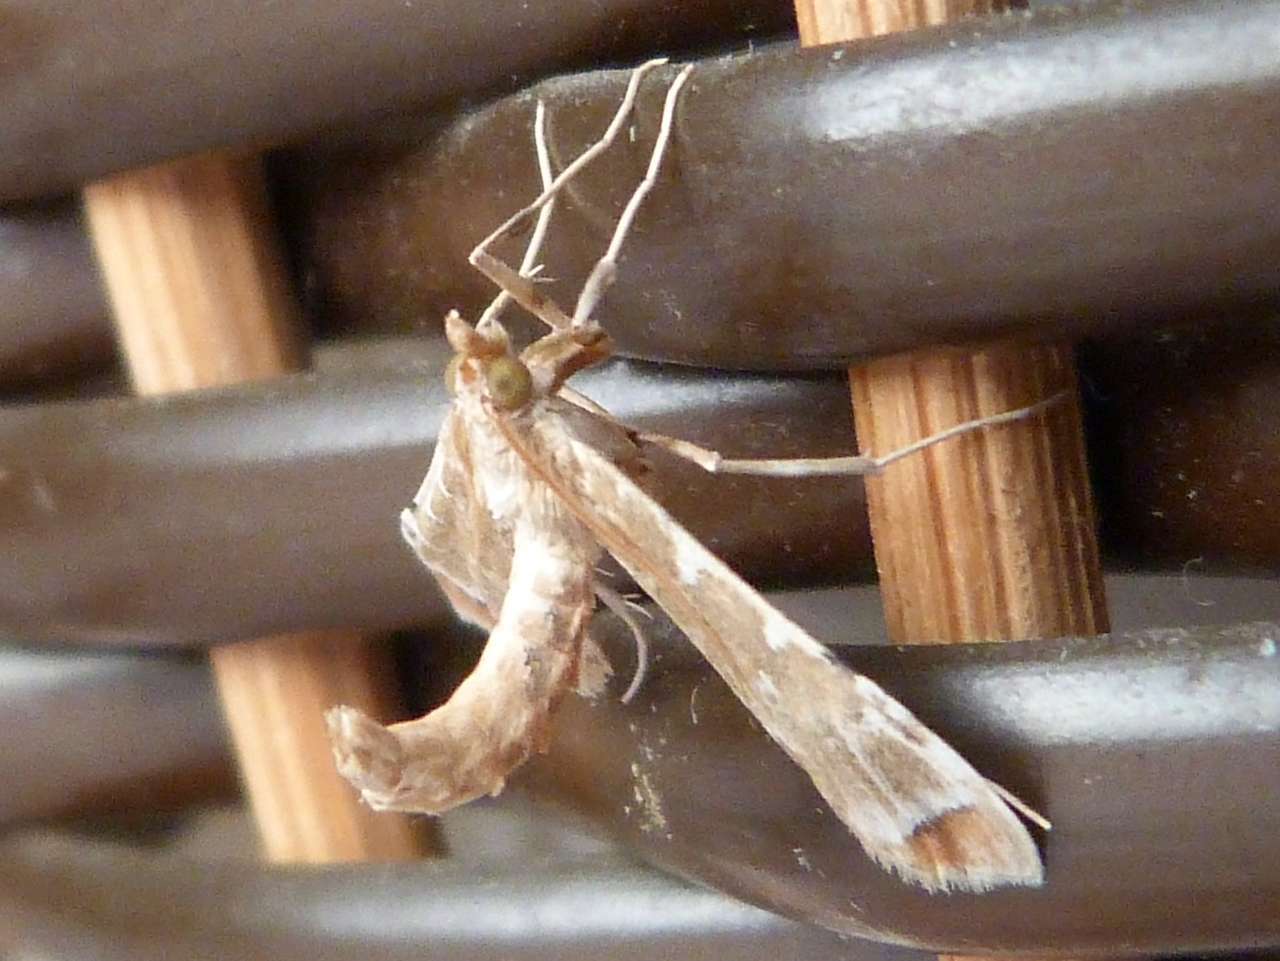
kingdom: Animalia
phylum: Arthropoda
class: Insecta
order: Lepidoptera
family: Crambidae
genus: Sceliodes
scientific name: Sceliodes cordalis
